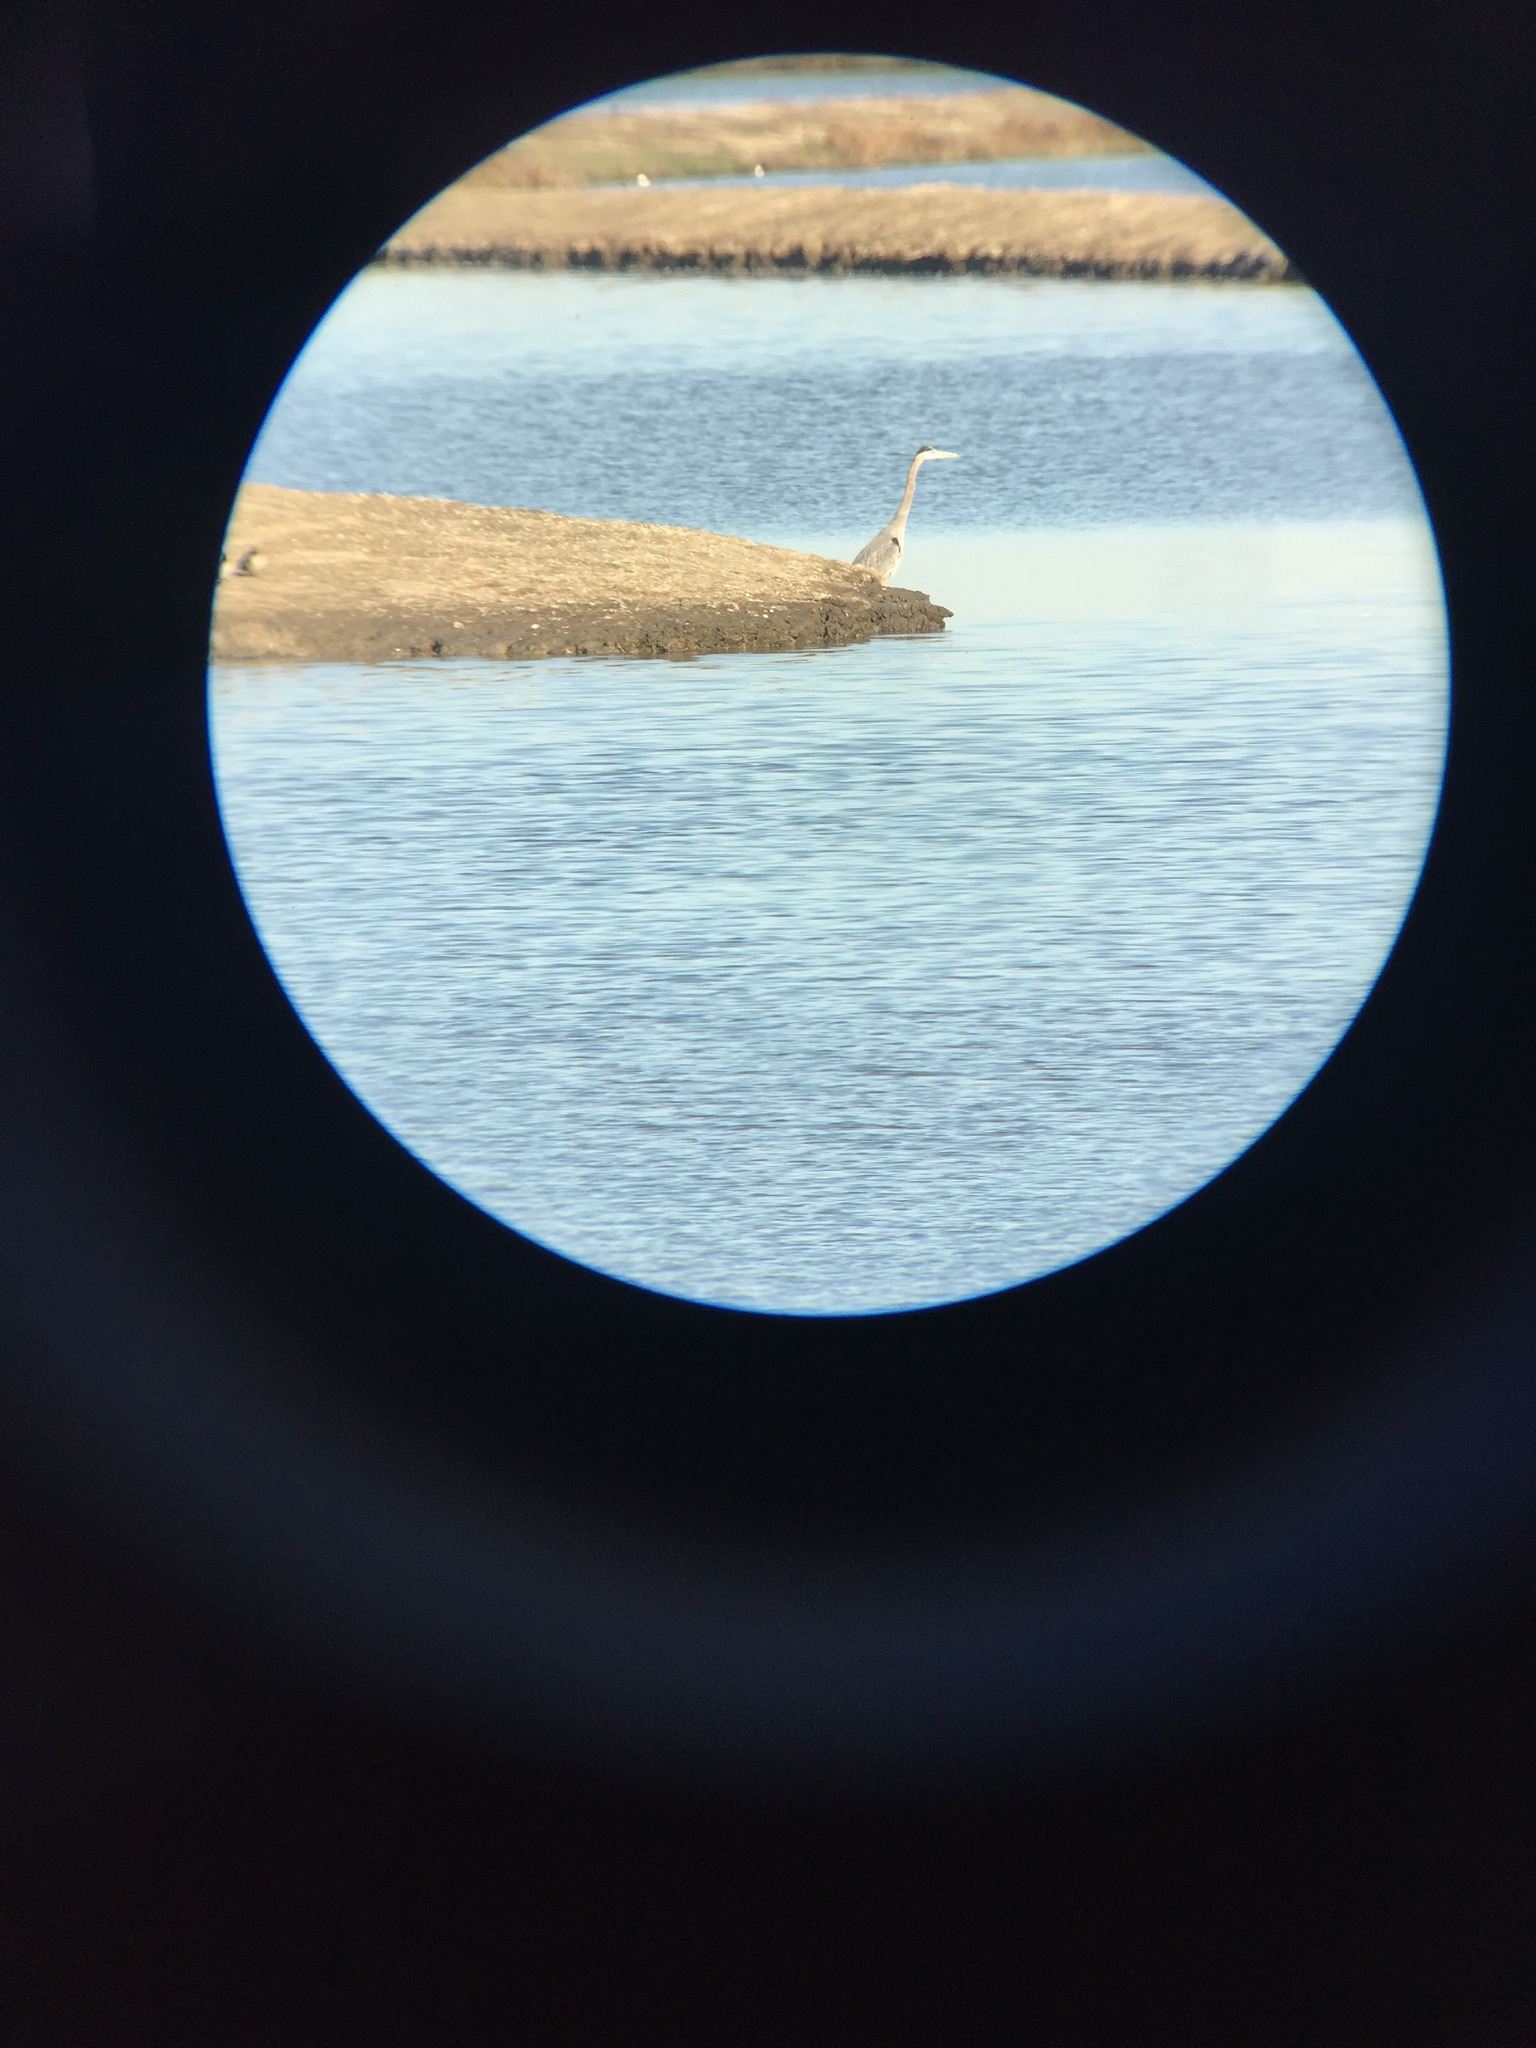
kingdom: Animalia
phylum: Chordata
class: Aves
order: Pelecaniformes
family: Ardeidae
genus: Ardea
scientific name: Ardea herodias
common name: Great blue heron
